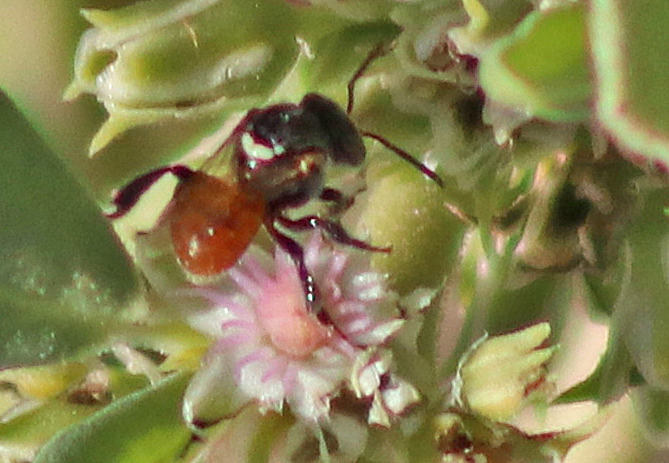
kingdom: Animalia
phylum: Arthropoda
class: Insecta
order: Hymenoptera
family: Apidae
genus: Austroplebeia
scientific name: Austroplebeia australis
